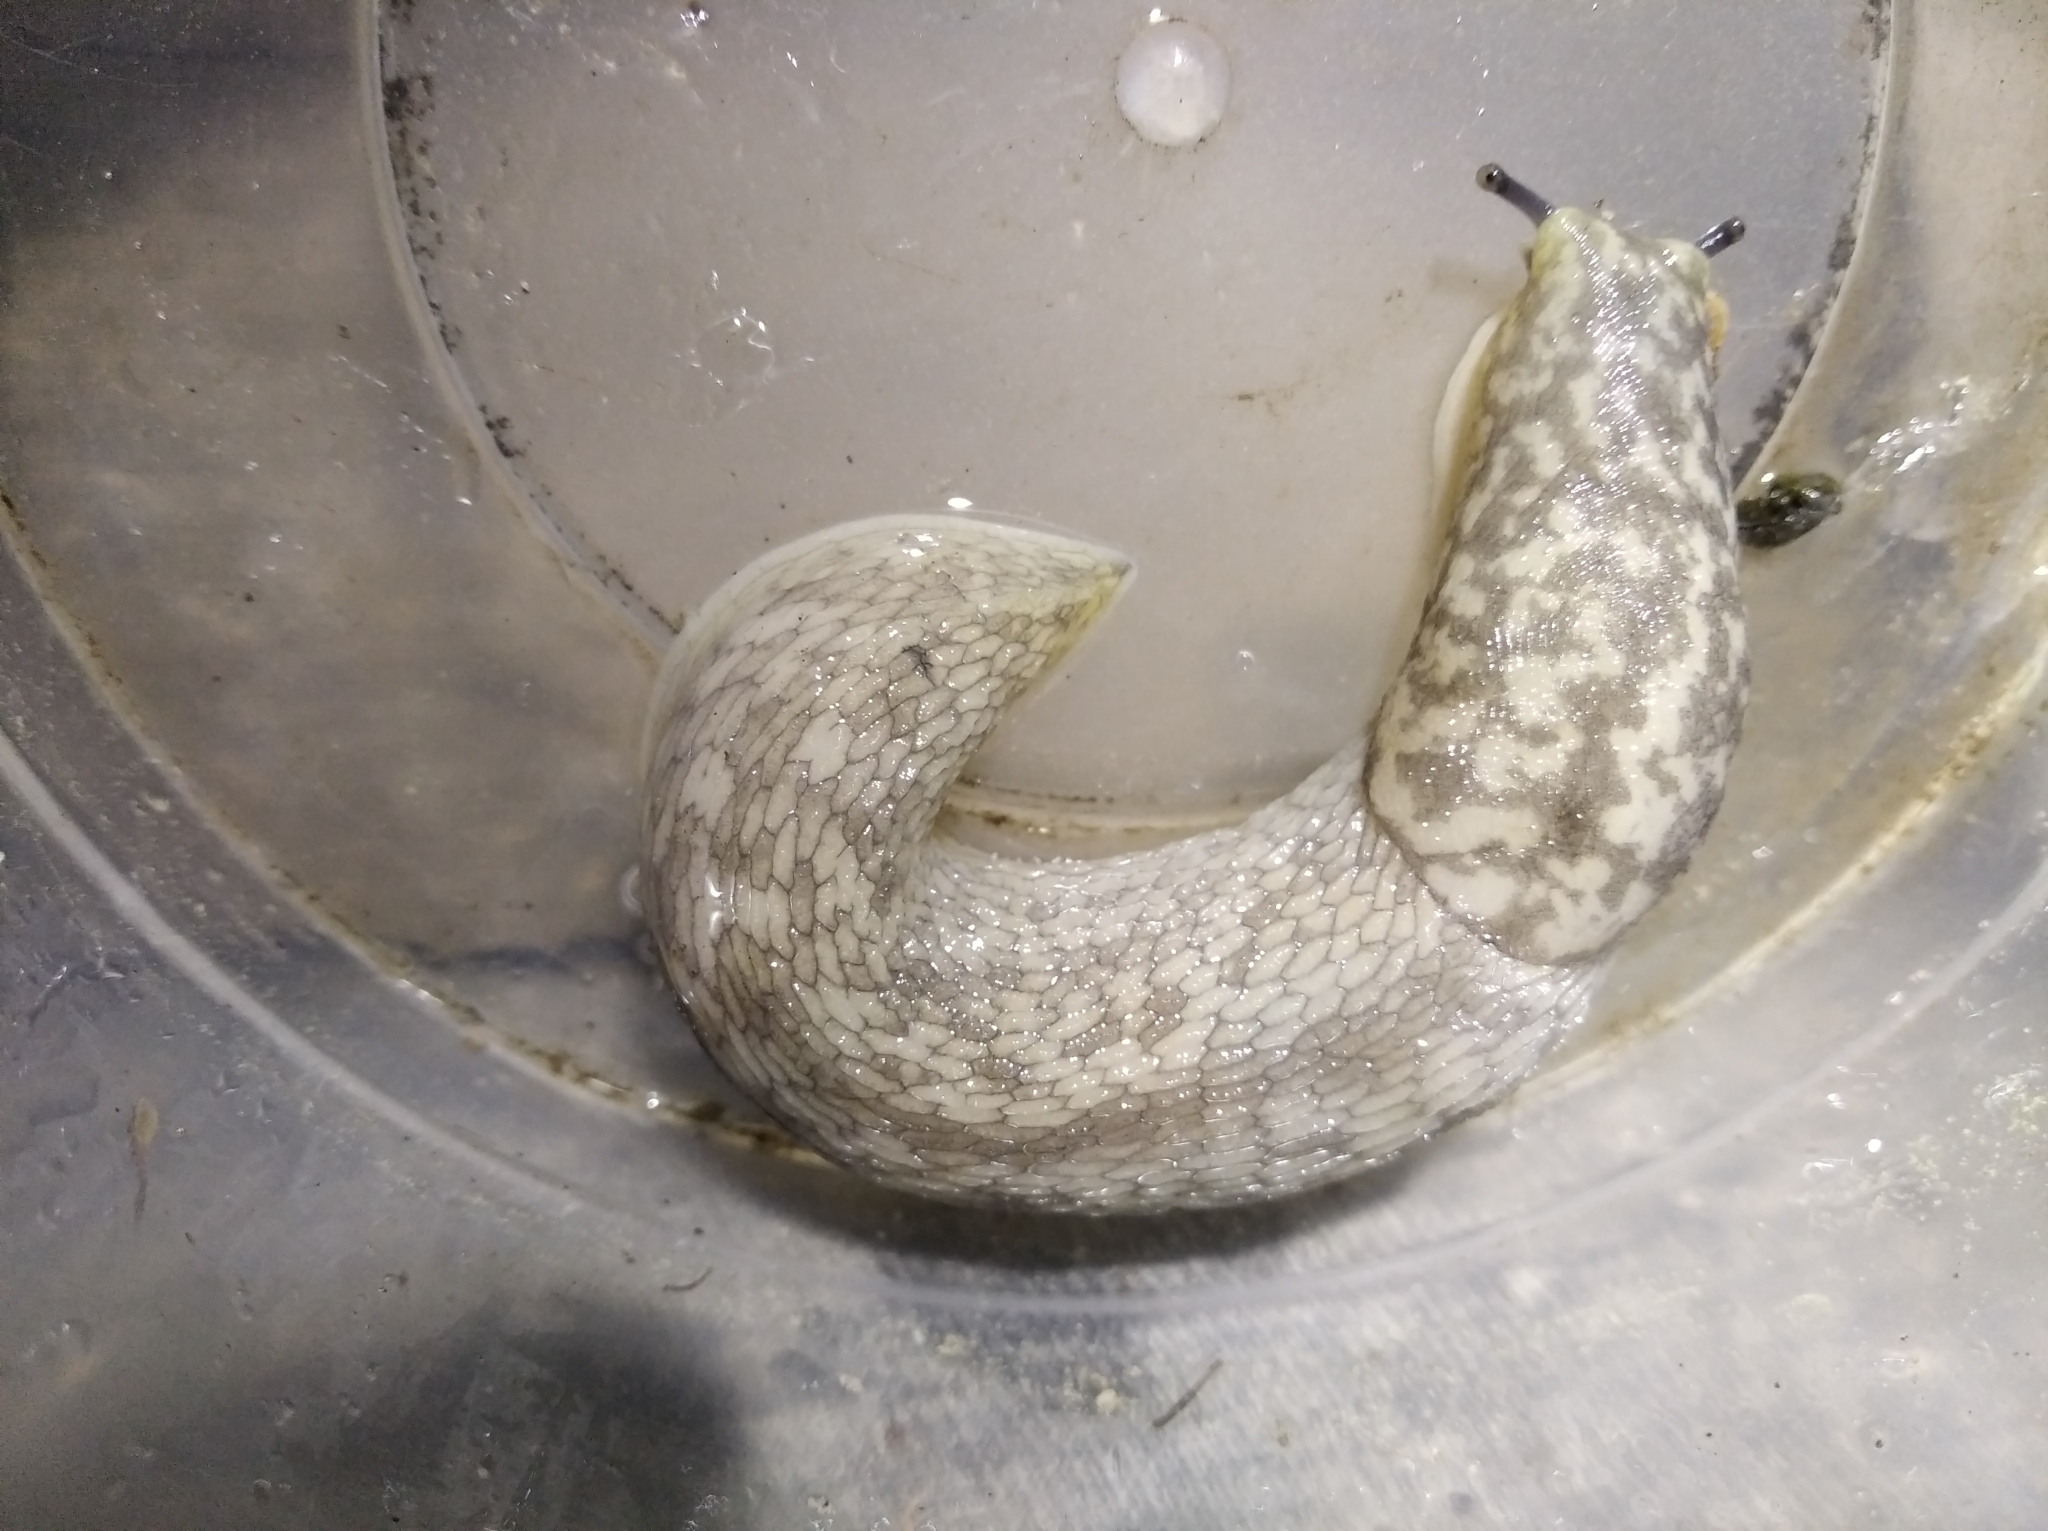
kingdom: Animalia
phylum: Mollusca
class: Gastropoda
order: Stylommatophora
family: Limacidae
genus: Limacus
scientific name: Limacus
